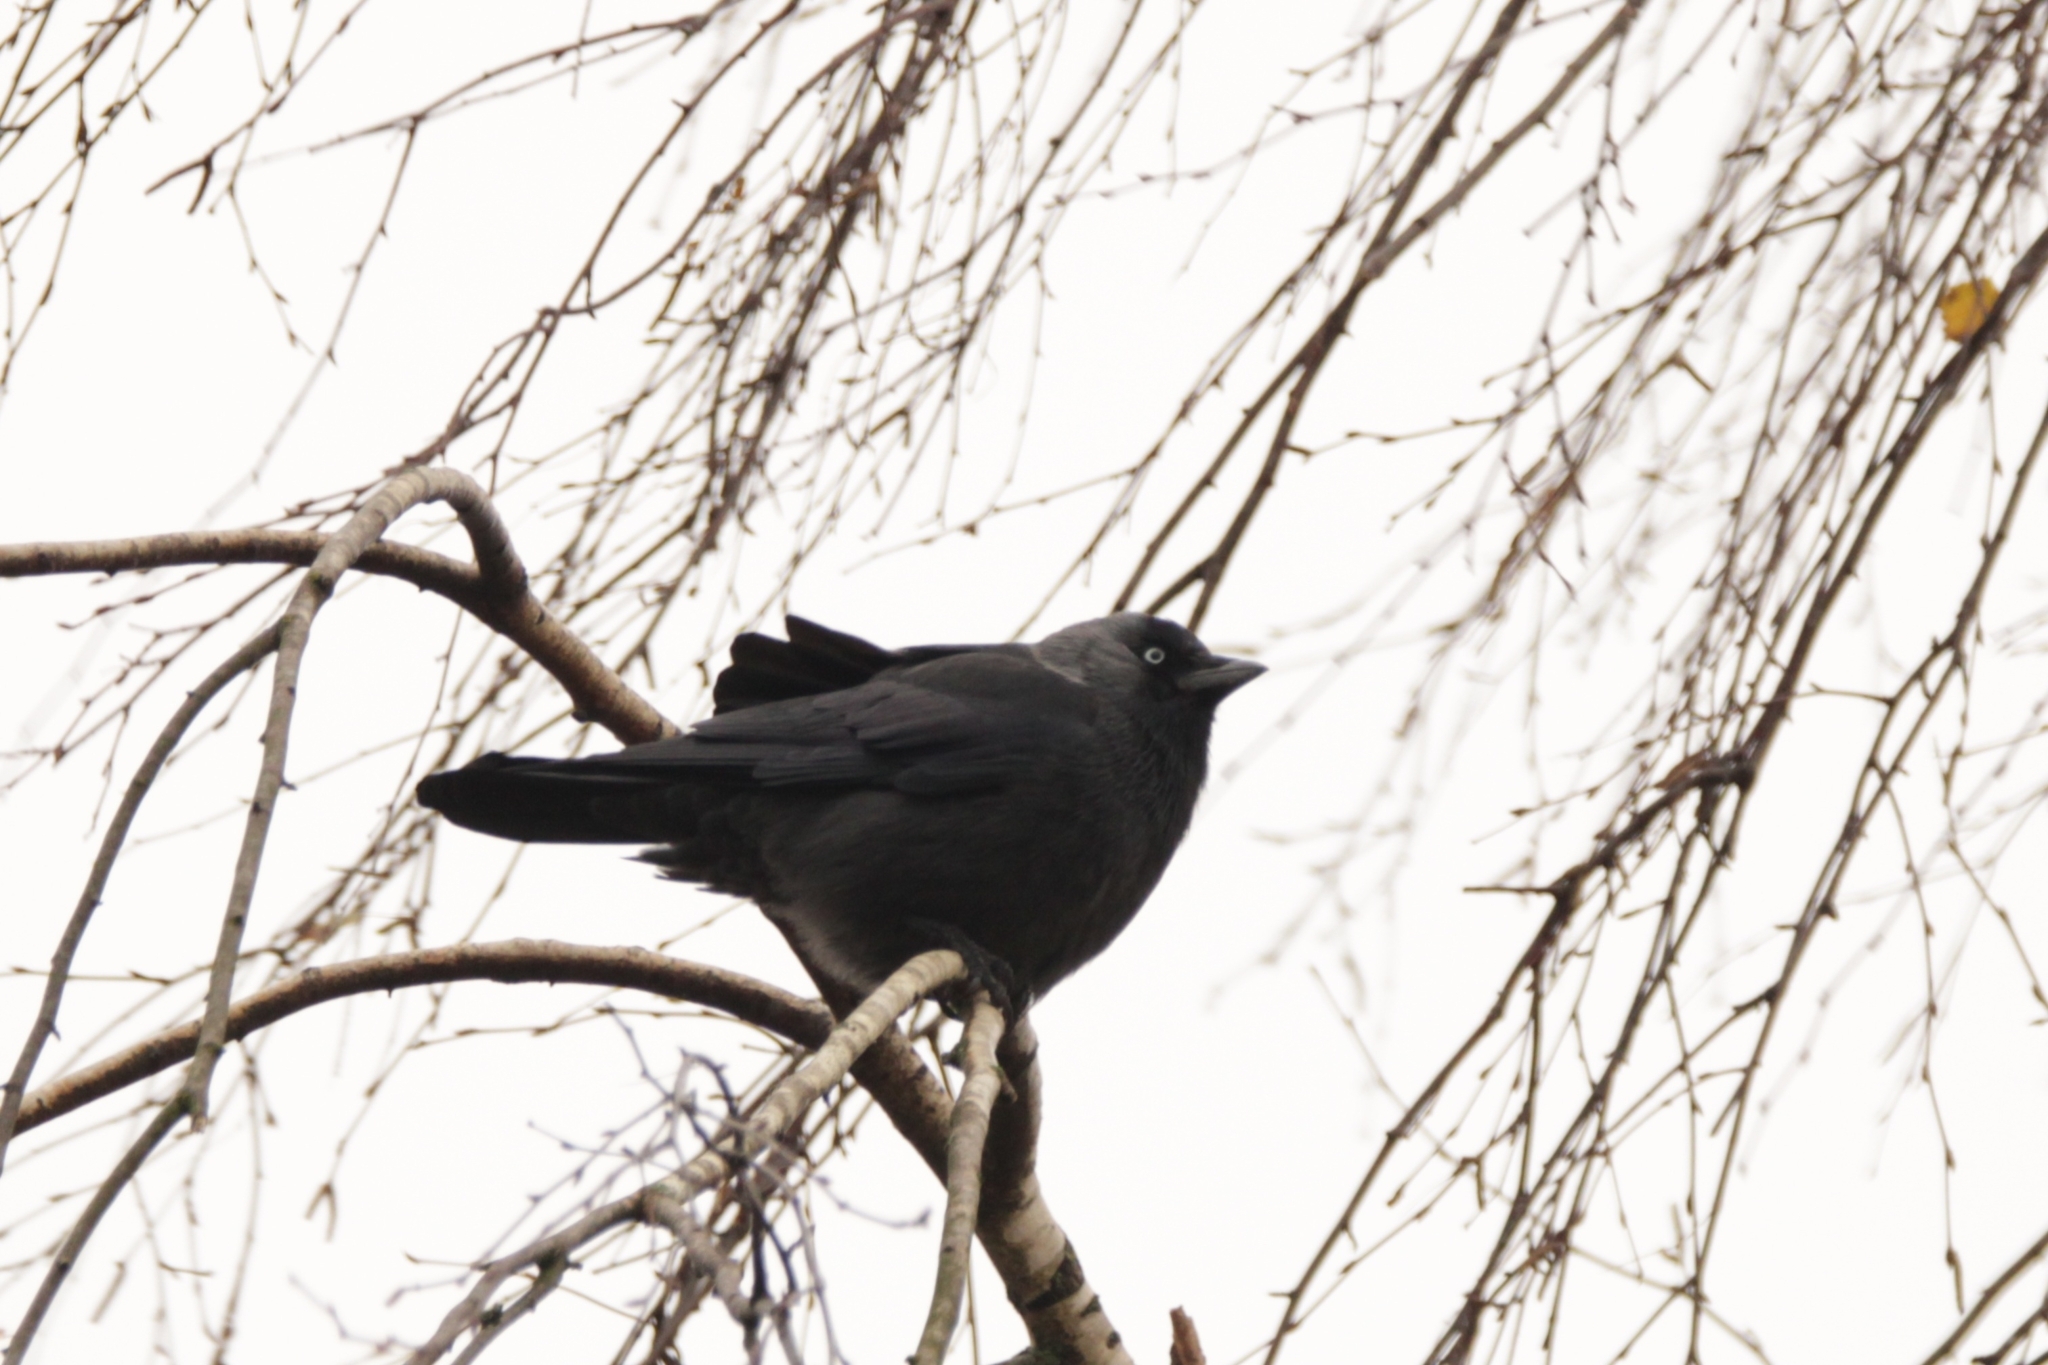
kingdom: Animalia
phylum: Chordata
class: Aves
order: Passeriformes
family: Corvidae
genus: Coloeus
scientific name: Coloeus monedula
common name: Western jackdaw
